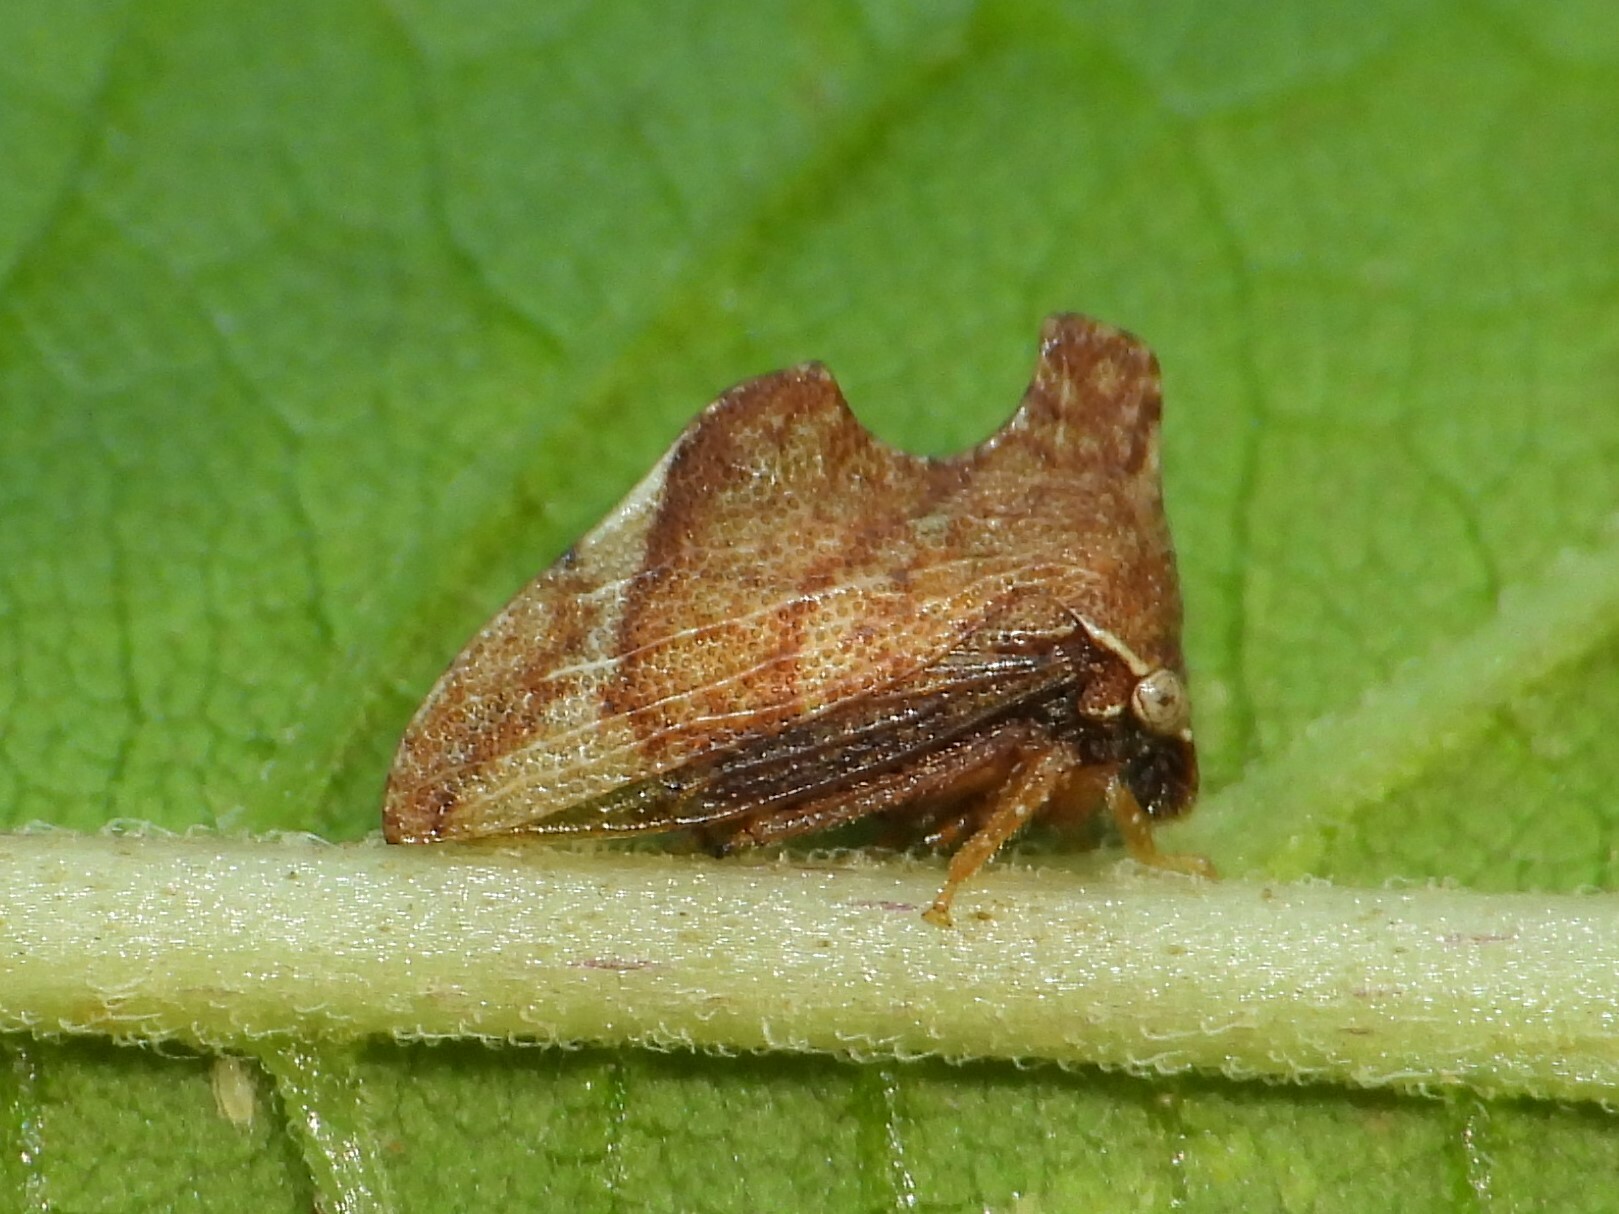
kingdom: Animalia
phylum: Arthropoda
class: Insecta
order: Hemiptera
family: Membracidae
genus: Entylia
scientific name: Entylia carinata
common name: Keeled treehopper
